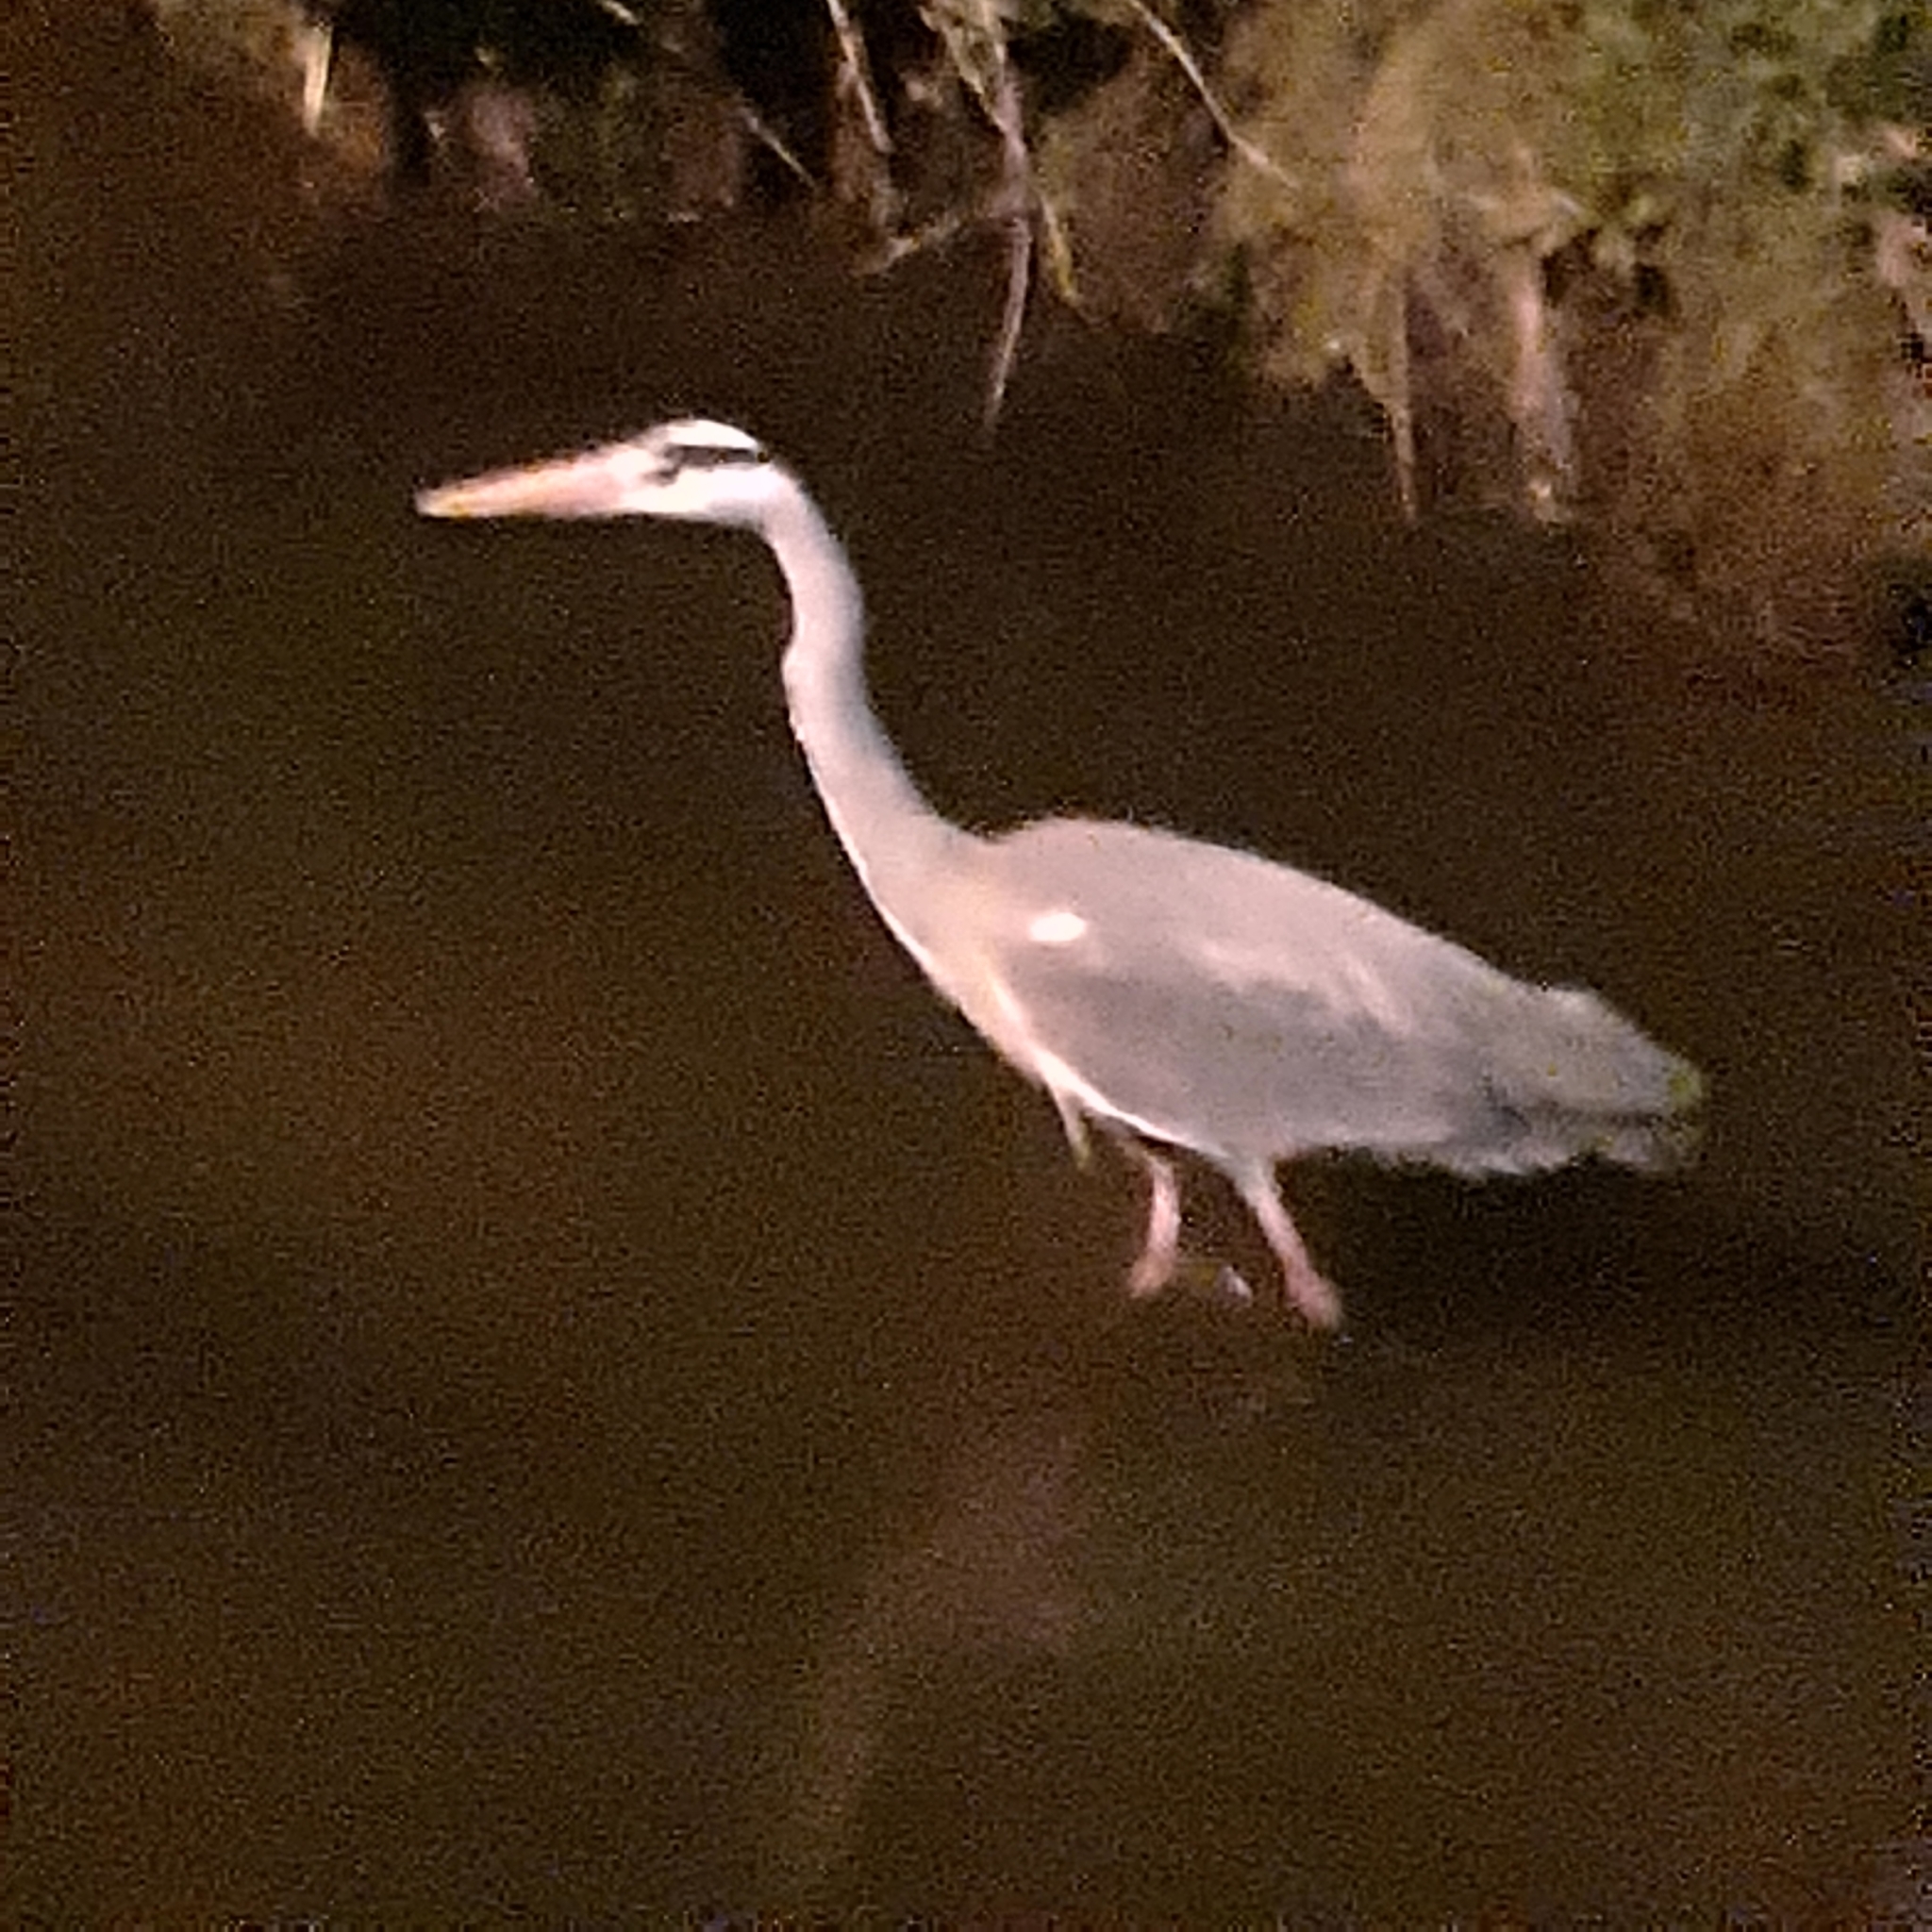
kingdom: Animalia
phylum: Chordata
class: Aves
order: Pelecaniformes
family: Ardeidae
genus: Ardea
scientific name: Ardea cinerea
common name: Grey heron
